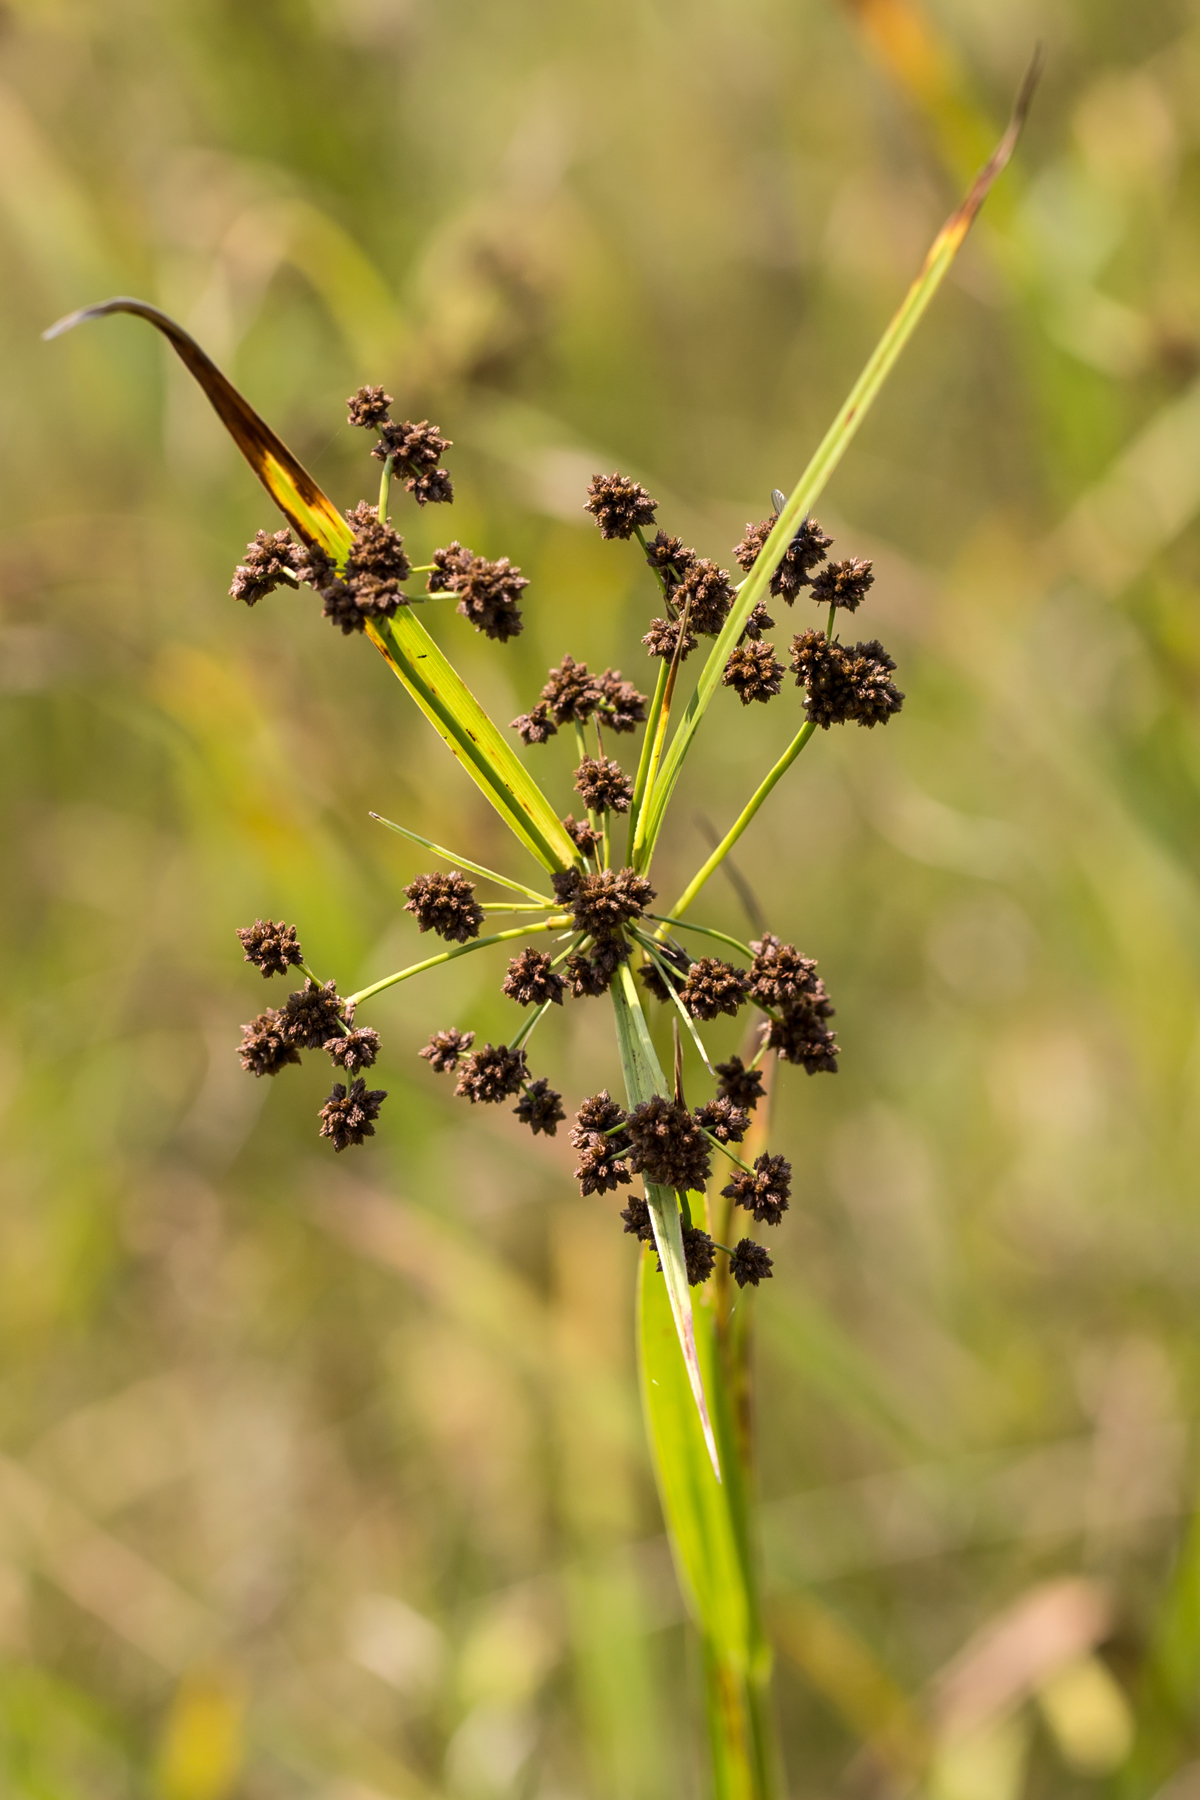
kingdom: Plantae
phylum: Tracheophyta
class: Liliopsida
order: Poales
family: Cyperaceae
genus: Scirpus
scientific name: Scirpus atrovirens
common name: Black bulrush
